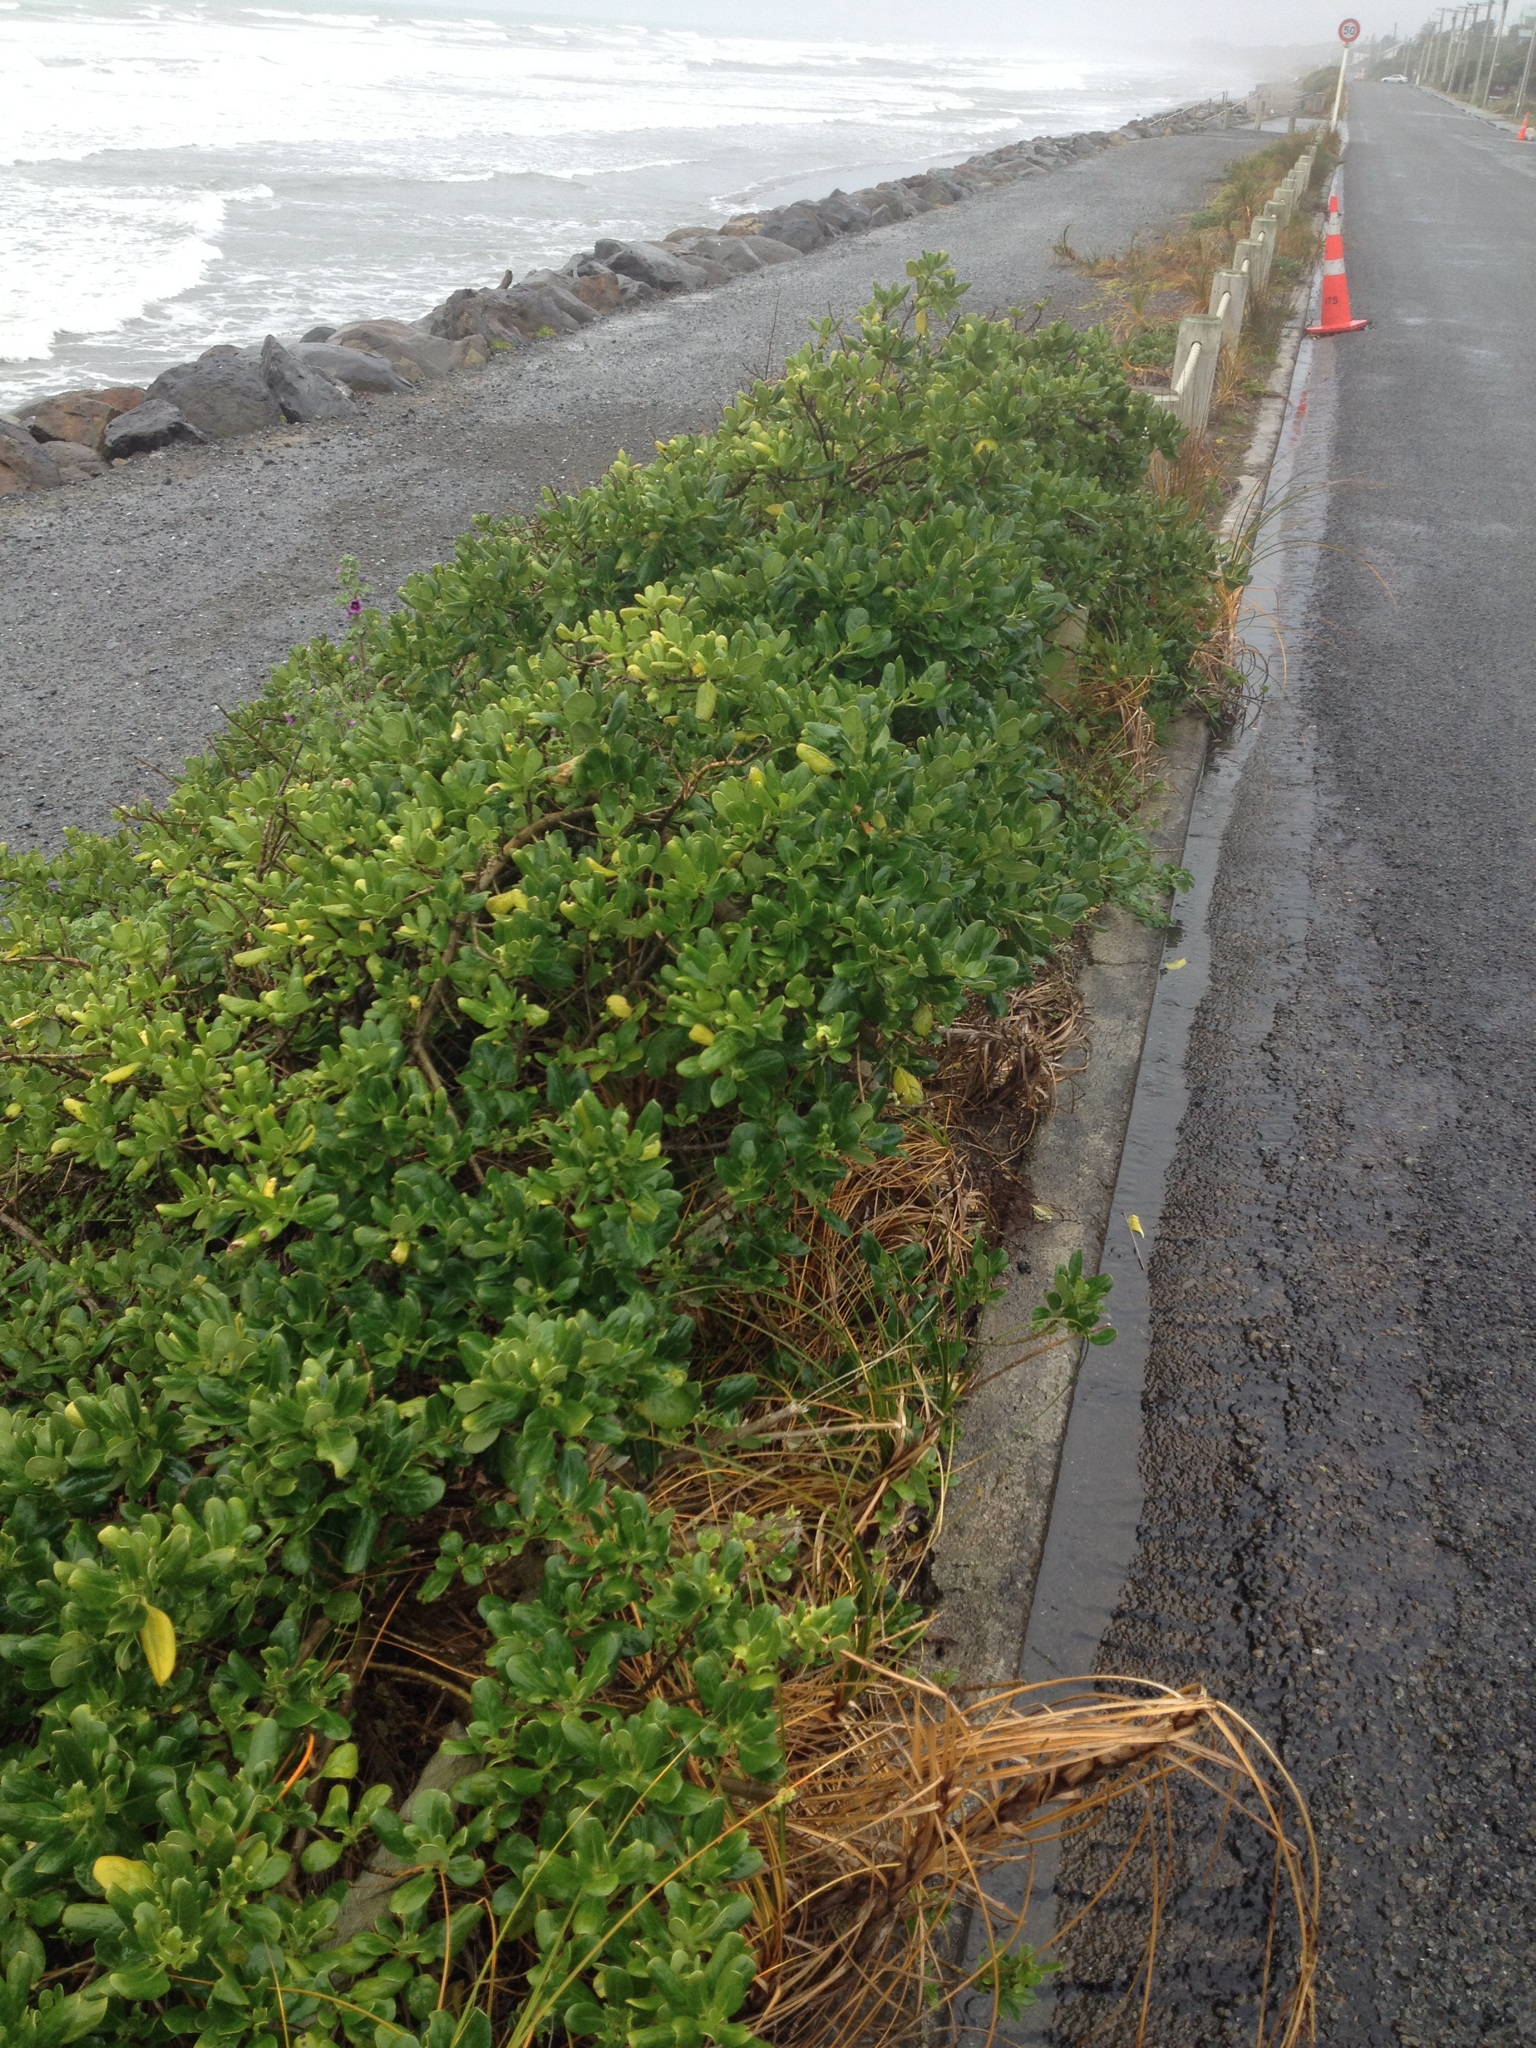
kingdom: Plantae
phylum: Tracheophyta
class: Magnoliopsida
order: Gentianales
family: Rubiaceae
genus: Coprosma
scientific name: Coprosma repens
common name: Tree bedstraw
